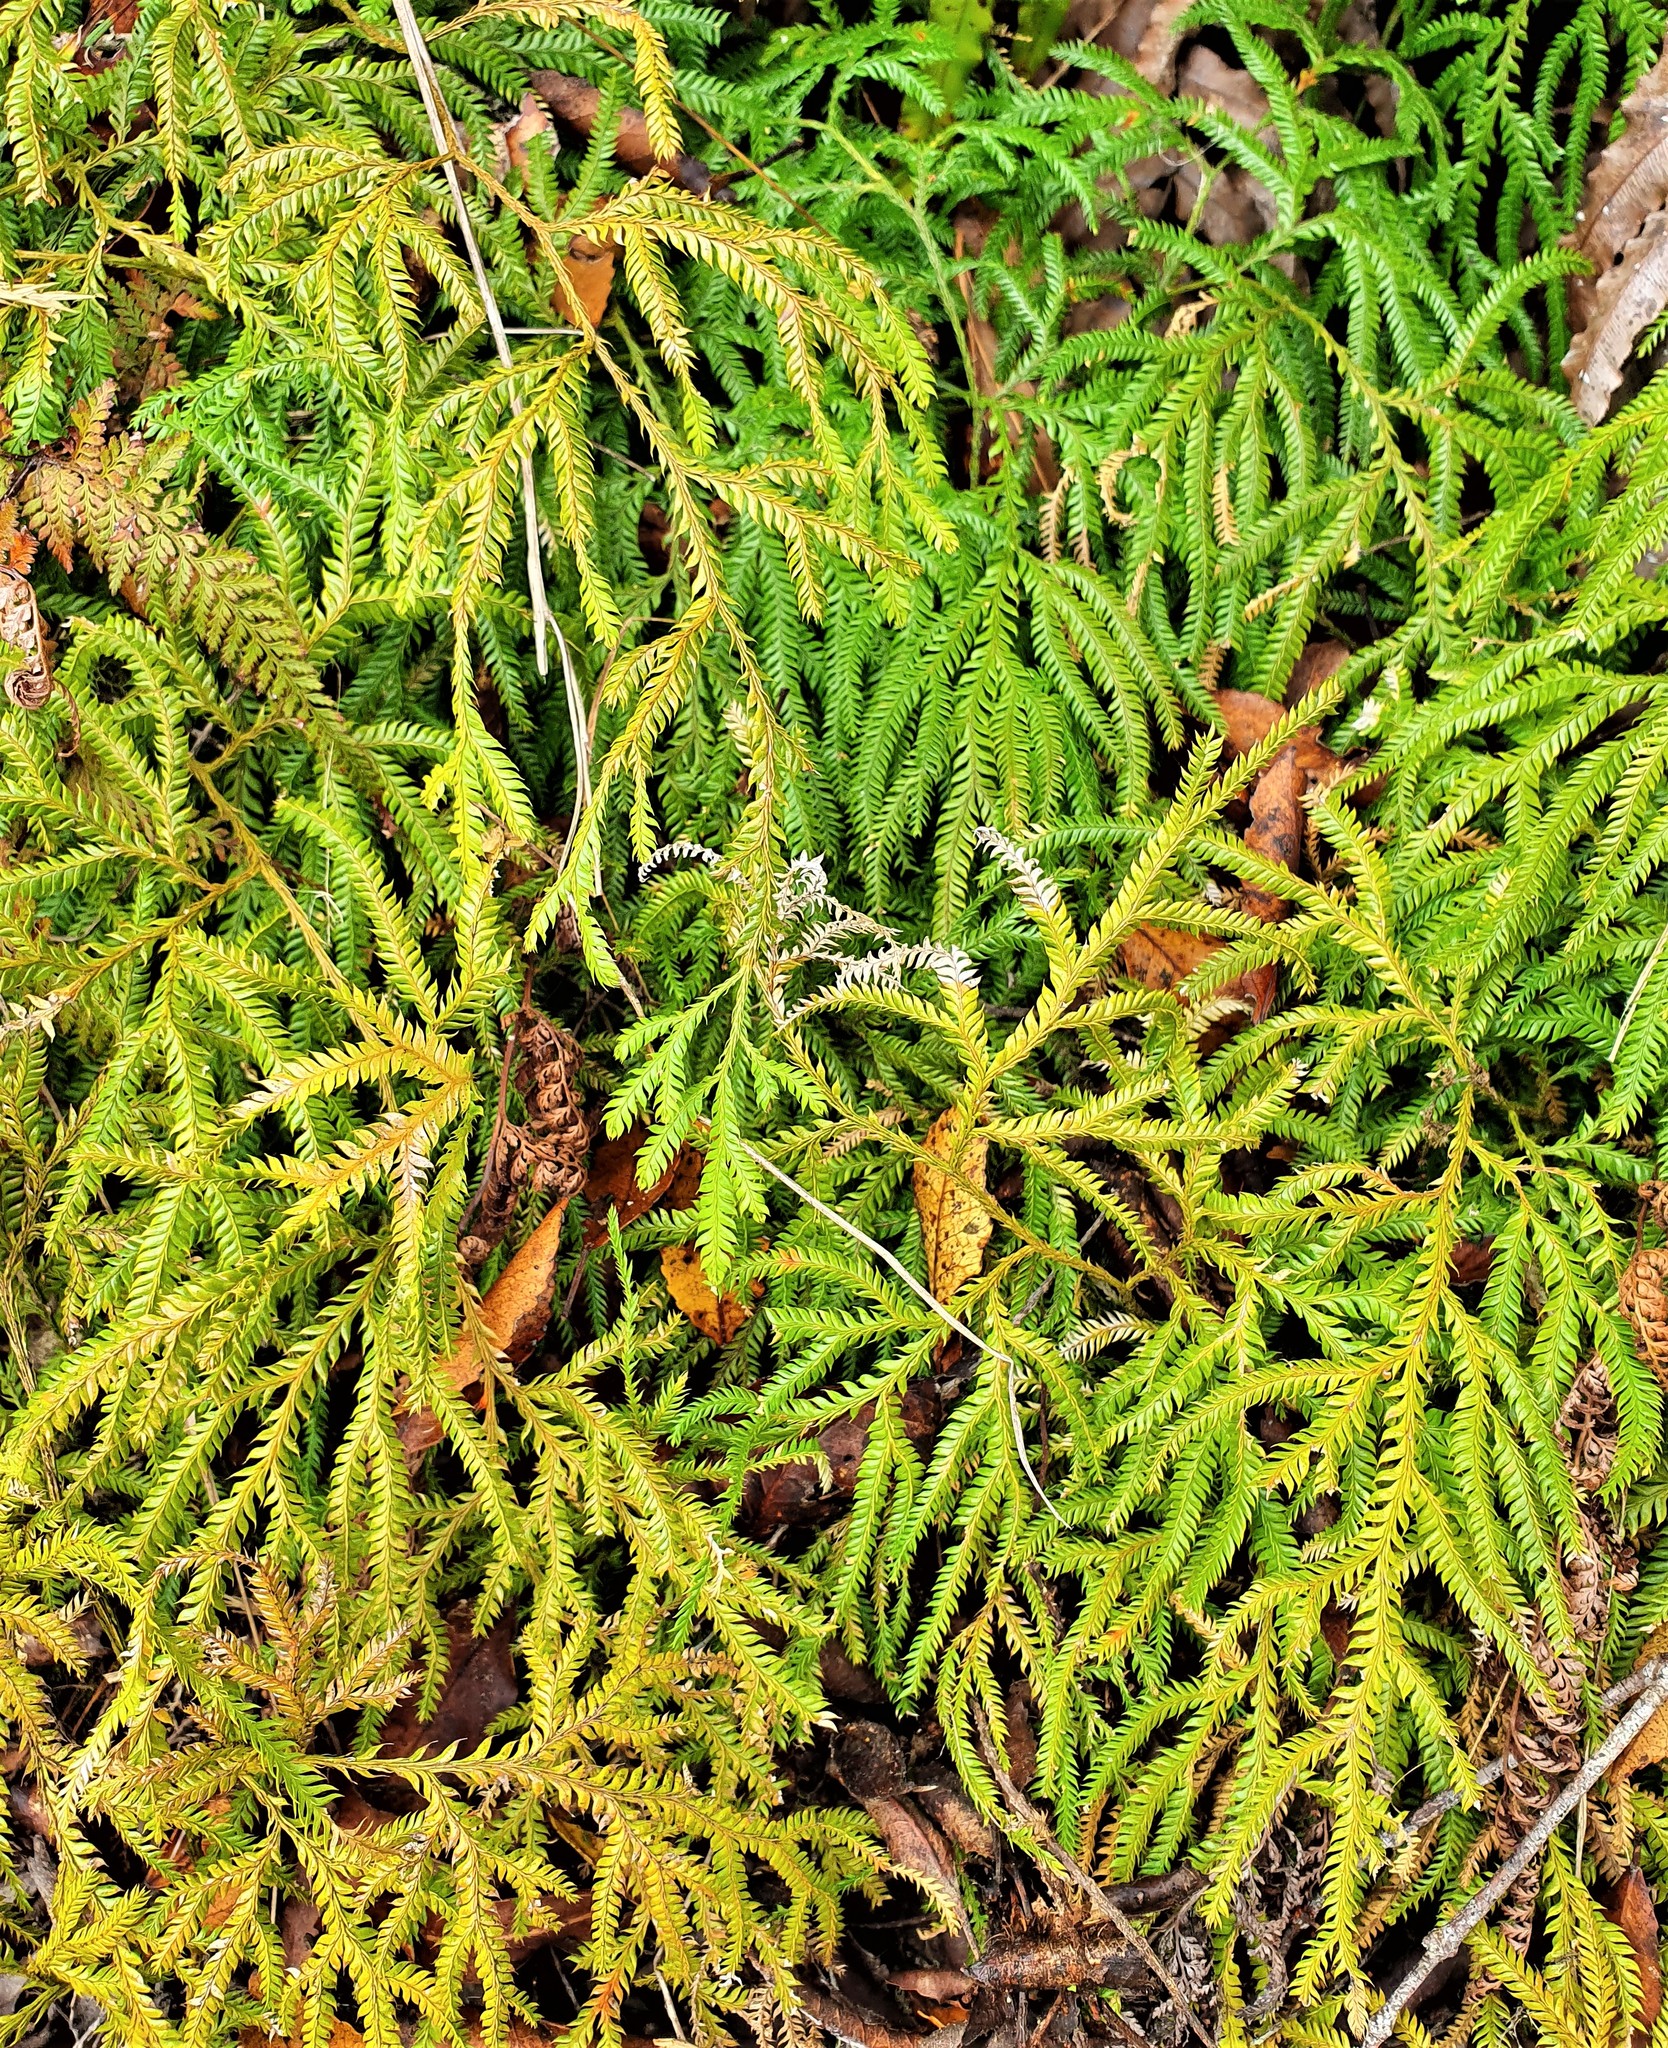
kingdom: Plantae
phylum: Tracheophyta
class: Lycopodiopsida
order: Lycopodiales
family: Lycopodiaceae
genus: Lycopodium
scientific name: Lycopodium volubile
